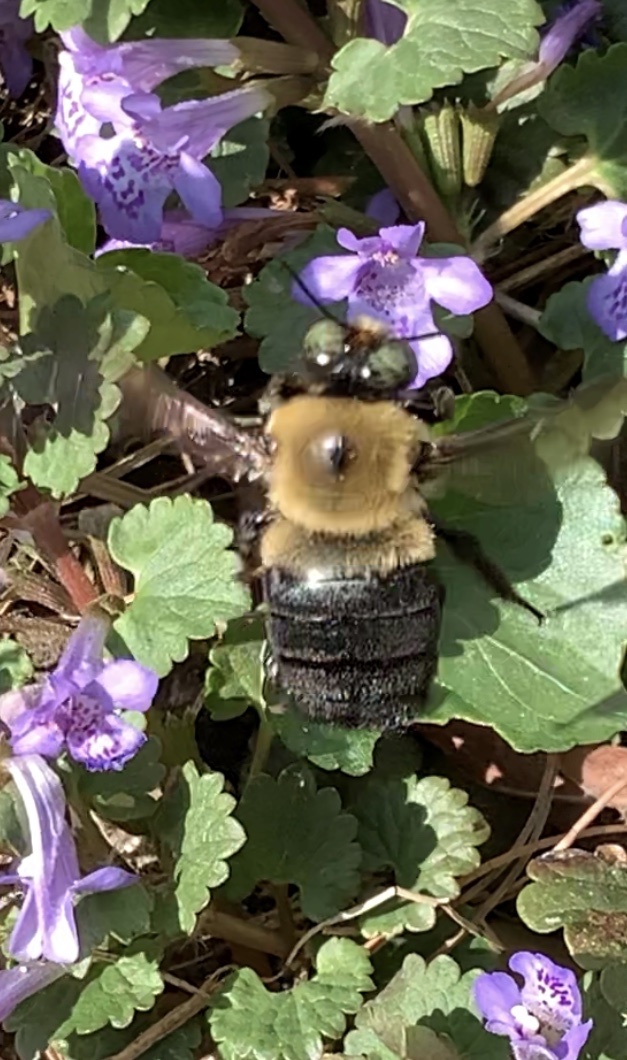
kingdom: Animalia
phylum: Arthropoda
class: Insecta
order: Hymenoptera
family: Apidae
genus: Xylocopa
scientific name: Xylocopa virginica
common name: Carpenter bee
